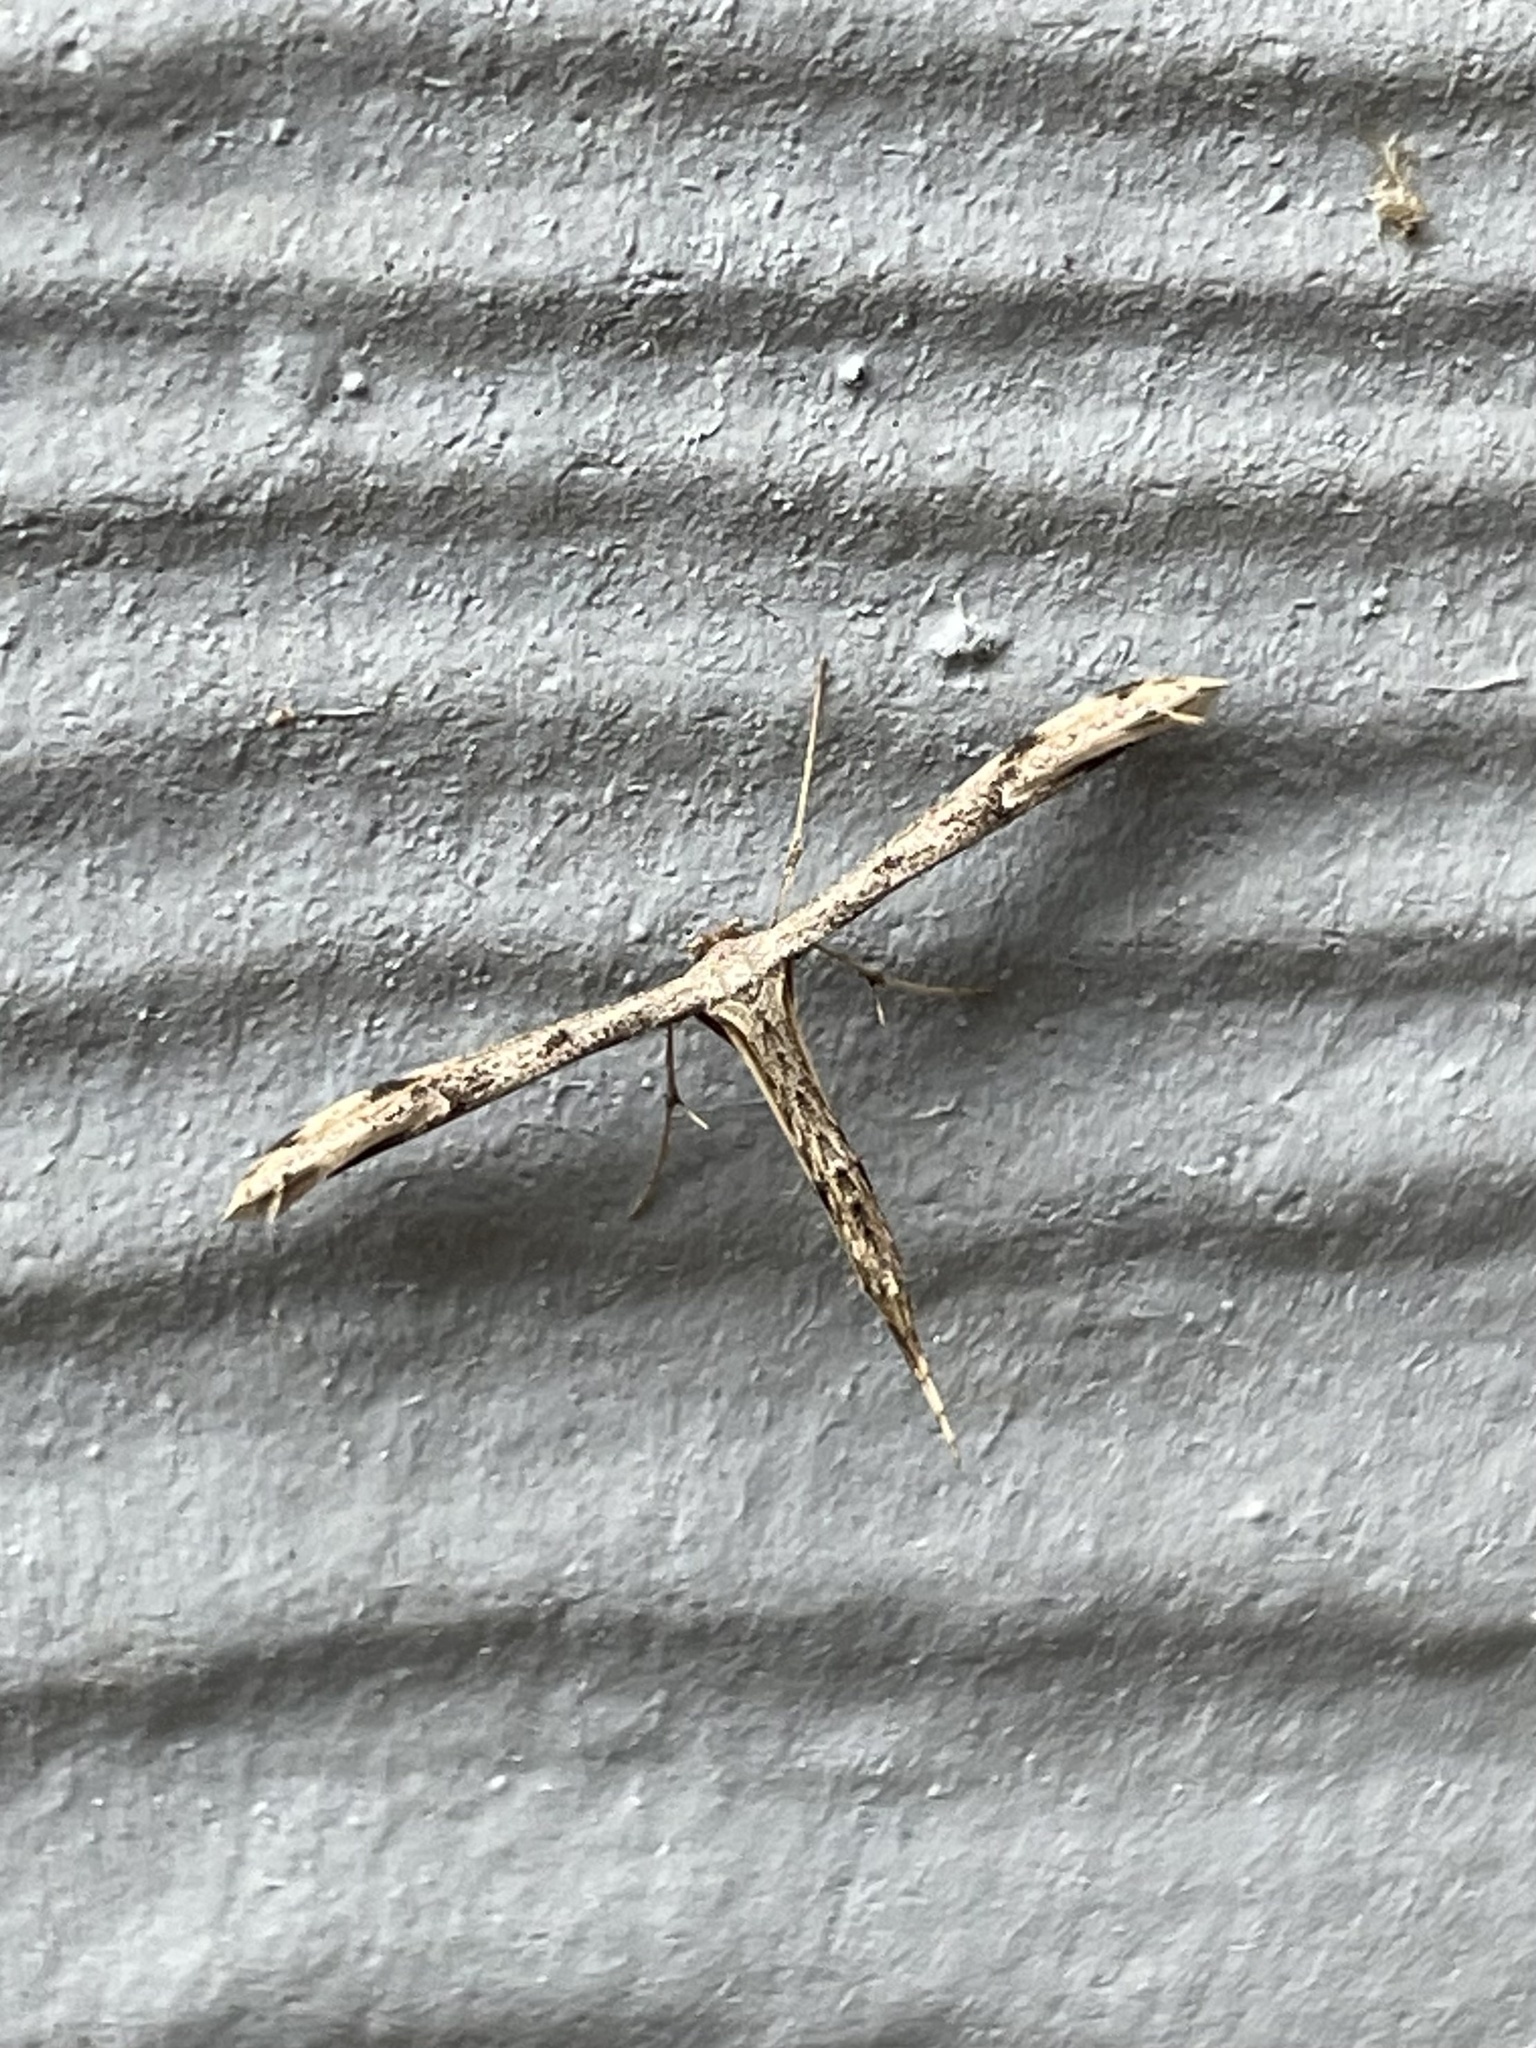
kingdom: Animalia
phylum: Arthropoda
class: Insecta
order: Lepidoptera
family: Pterophoridae
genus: Adaina
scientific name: Adaina ambrosiae
